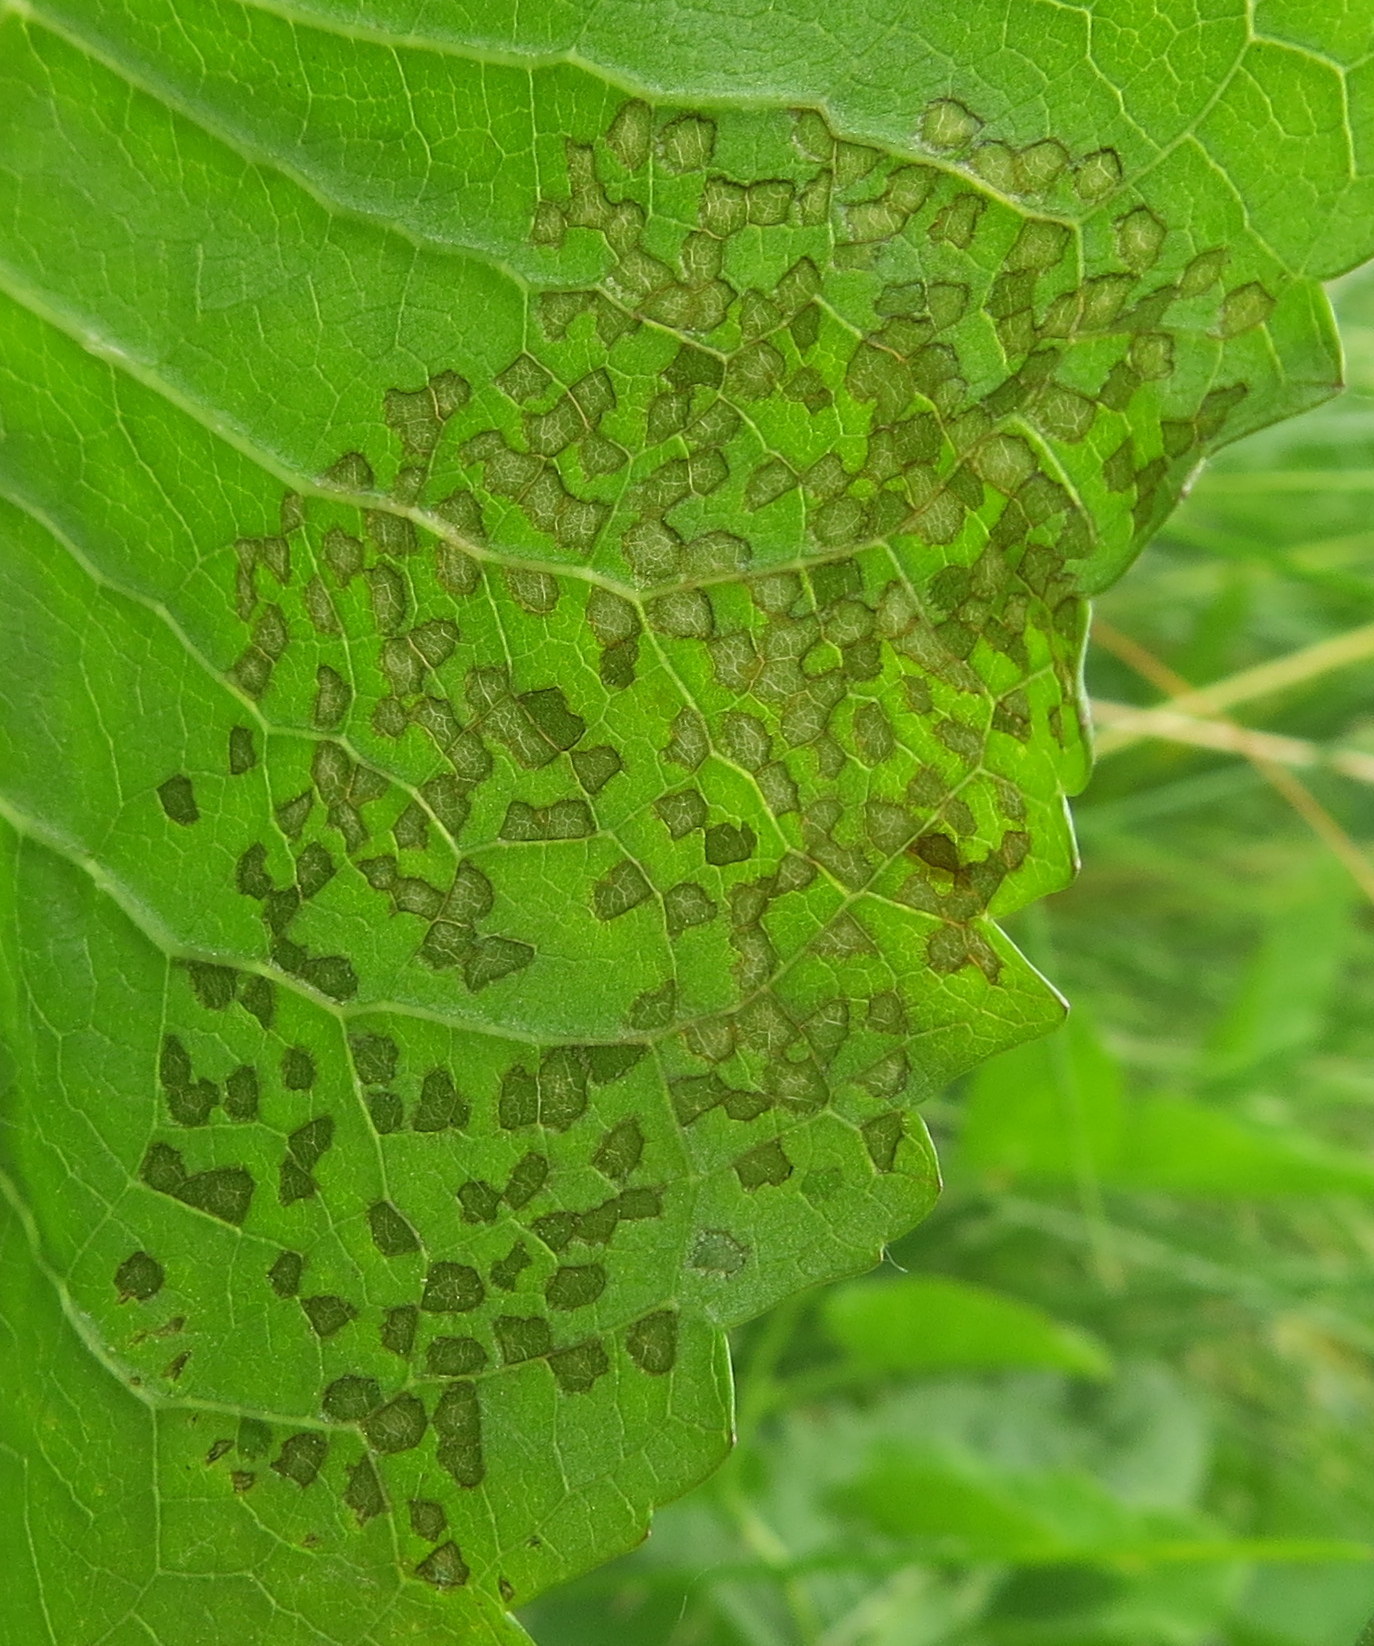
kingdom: Animalia
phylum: Arthropoda
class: Insecta
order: Hemiptera
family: Miridae
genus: Poecilocapsus
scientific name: Poecilocapsus lineatus
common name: Four-lined plant bug
